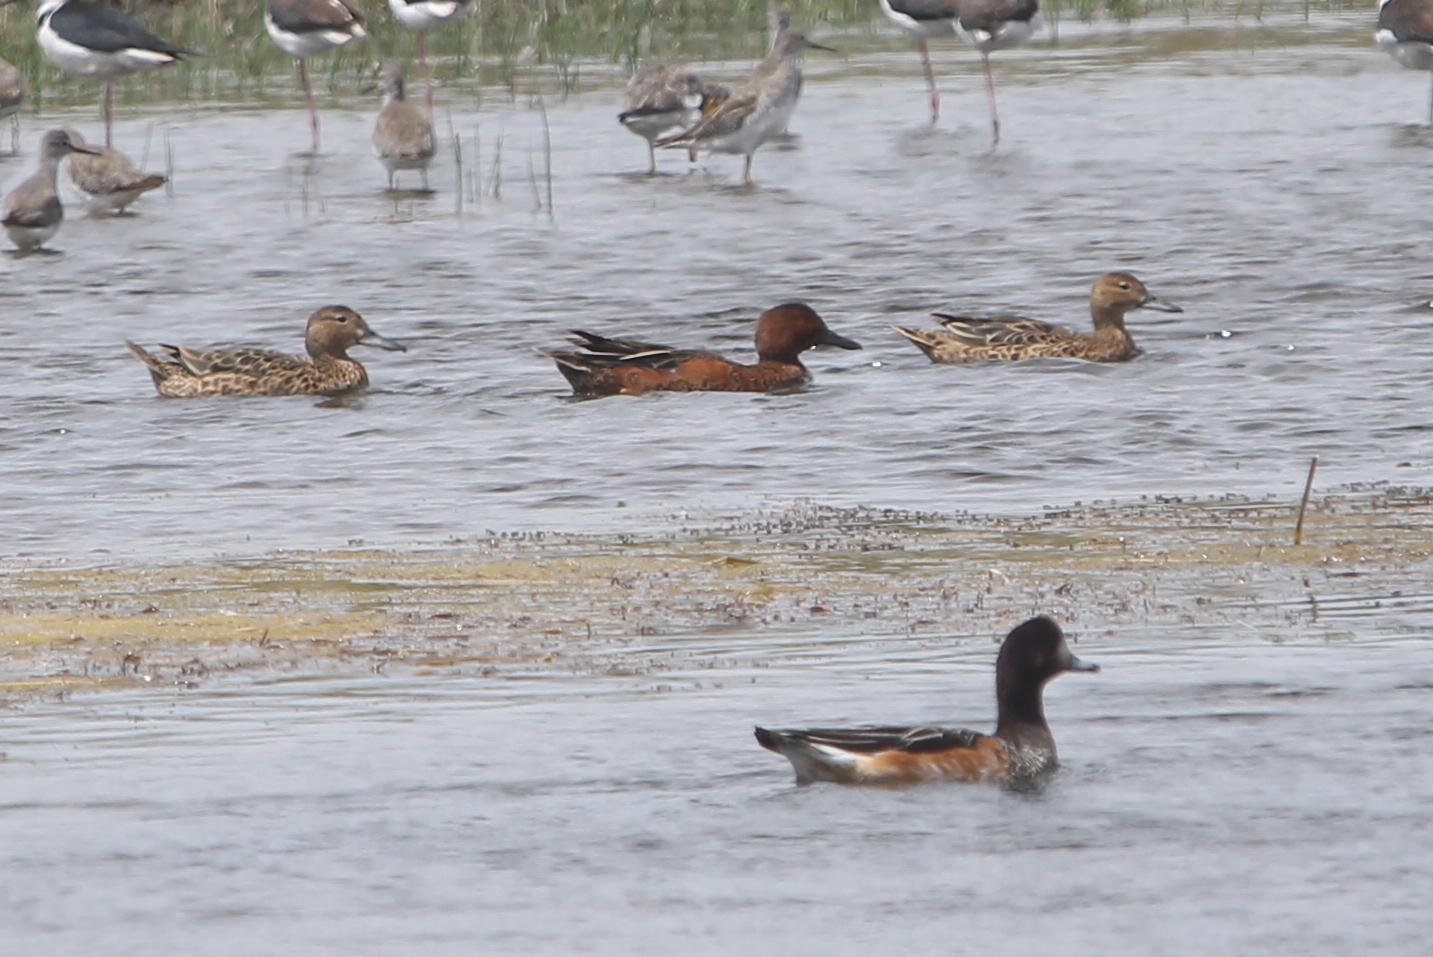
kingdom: Animalia
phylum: Chordata
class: Aves
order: Anseriformes
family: Anatidae
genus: Spatula
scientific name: Spatula cyanoptera
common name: Cinnamon teal
